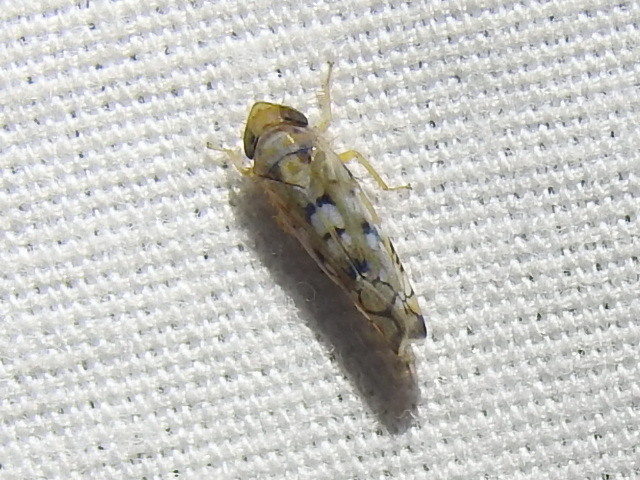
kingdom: Animalia
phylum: Arthropoda
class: Insecta
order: Hemiptera
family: Cicadellidae
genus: Scaphoideus
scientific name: Scaphoideus opalinus
